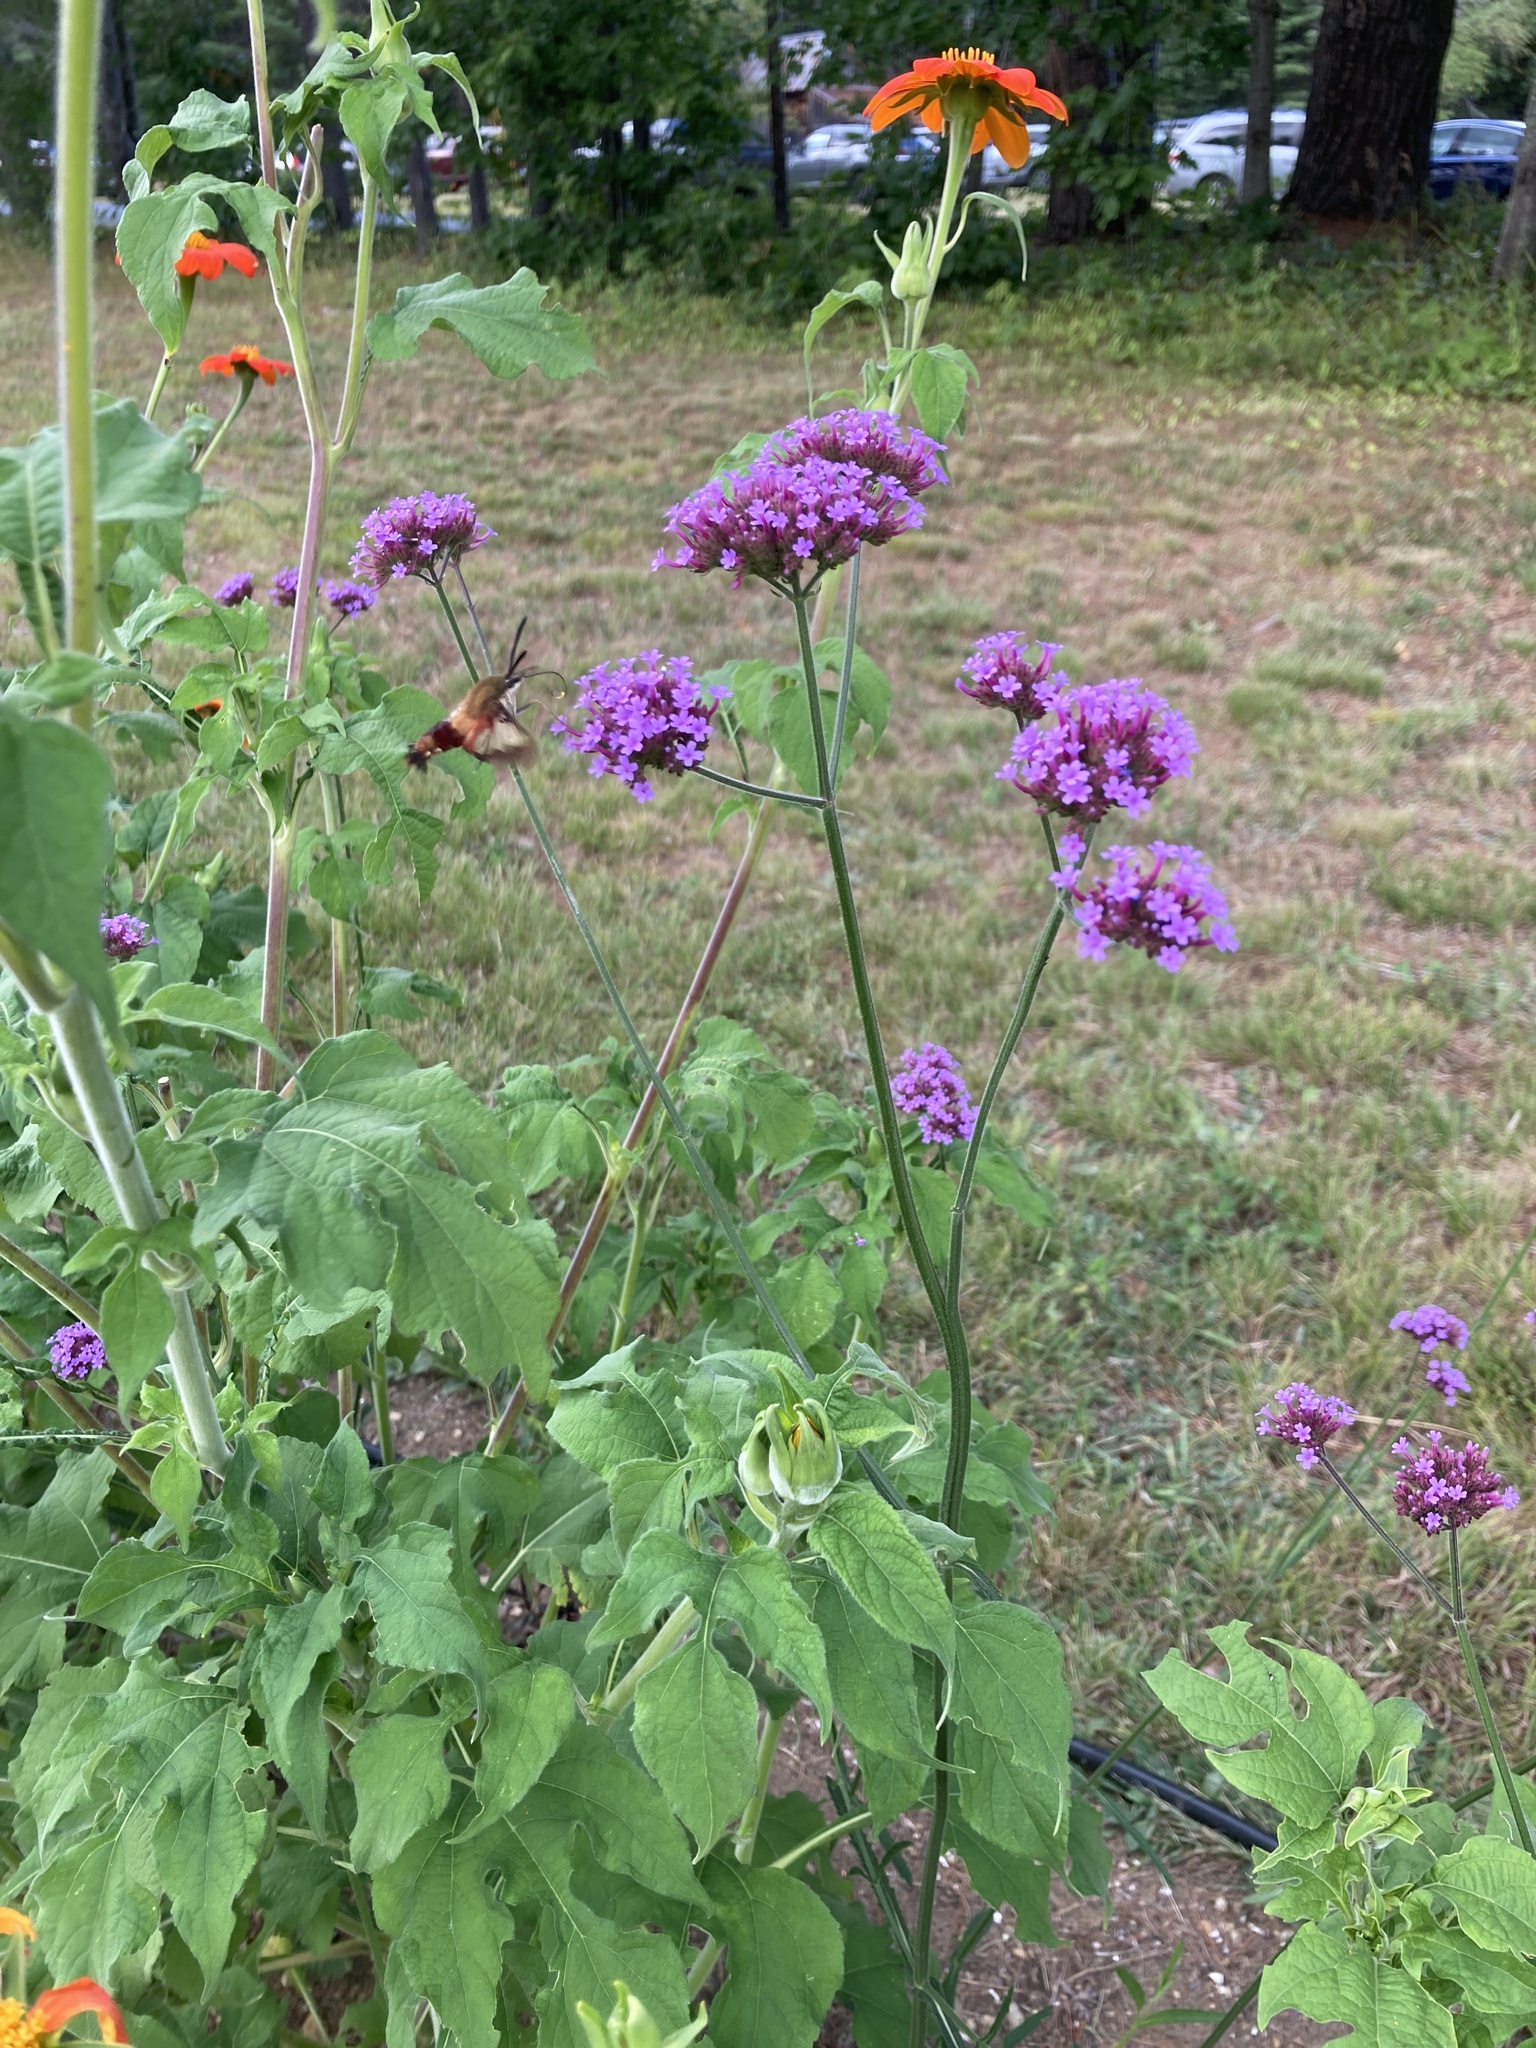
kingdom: Animalia
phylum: Arthropoda
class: Insecta
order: Lepidoptera
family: Sphingidae
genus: Hemaris
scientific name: Hemaris thysbe
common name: Common clear-wing
